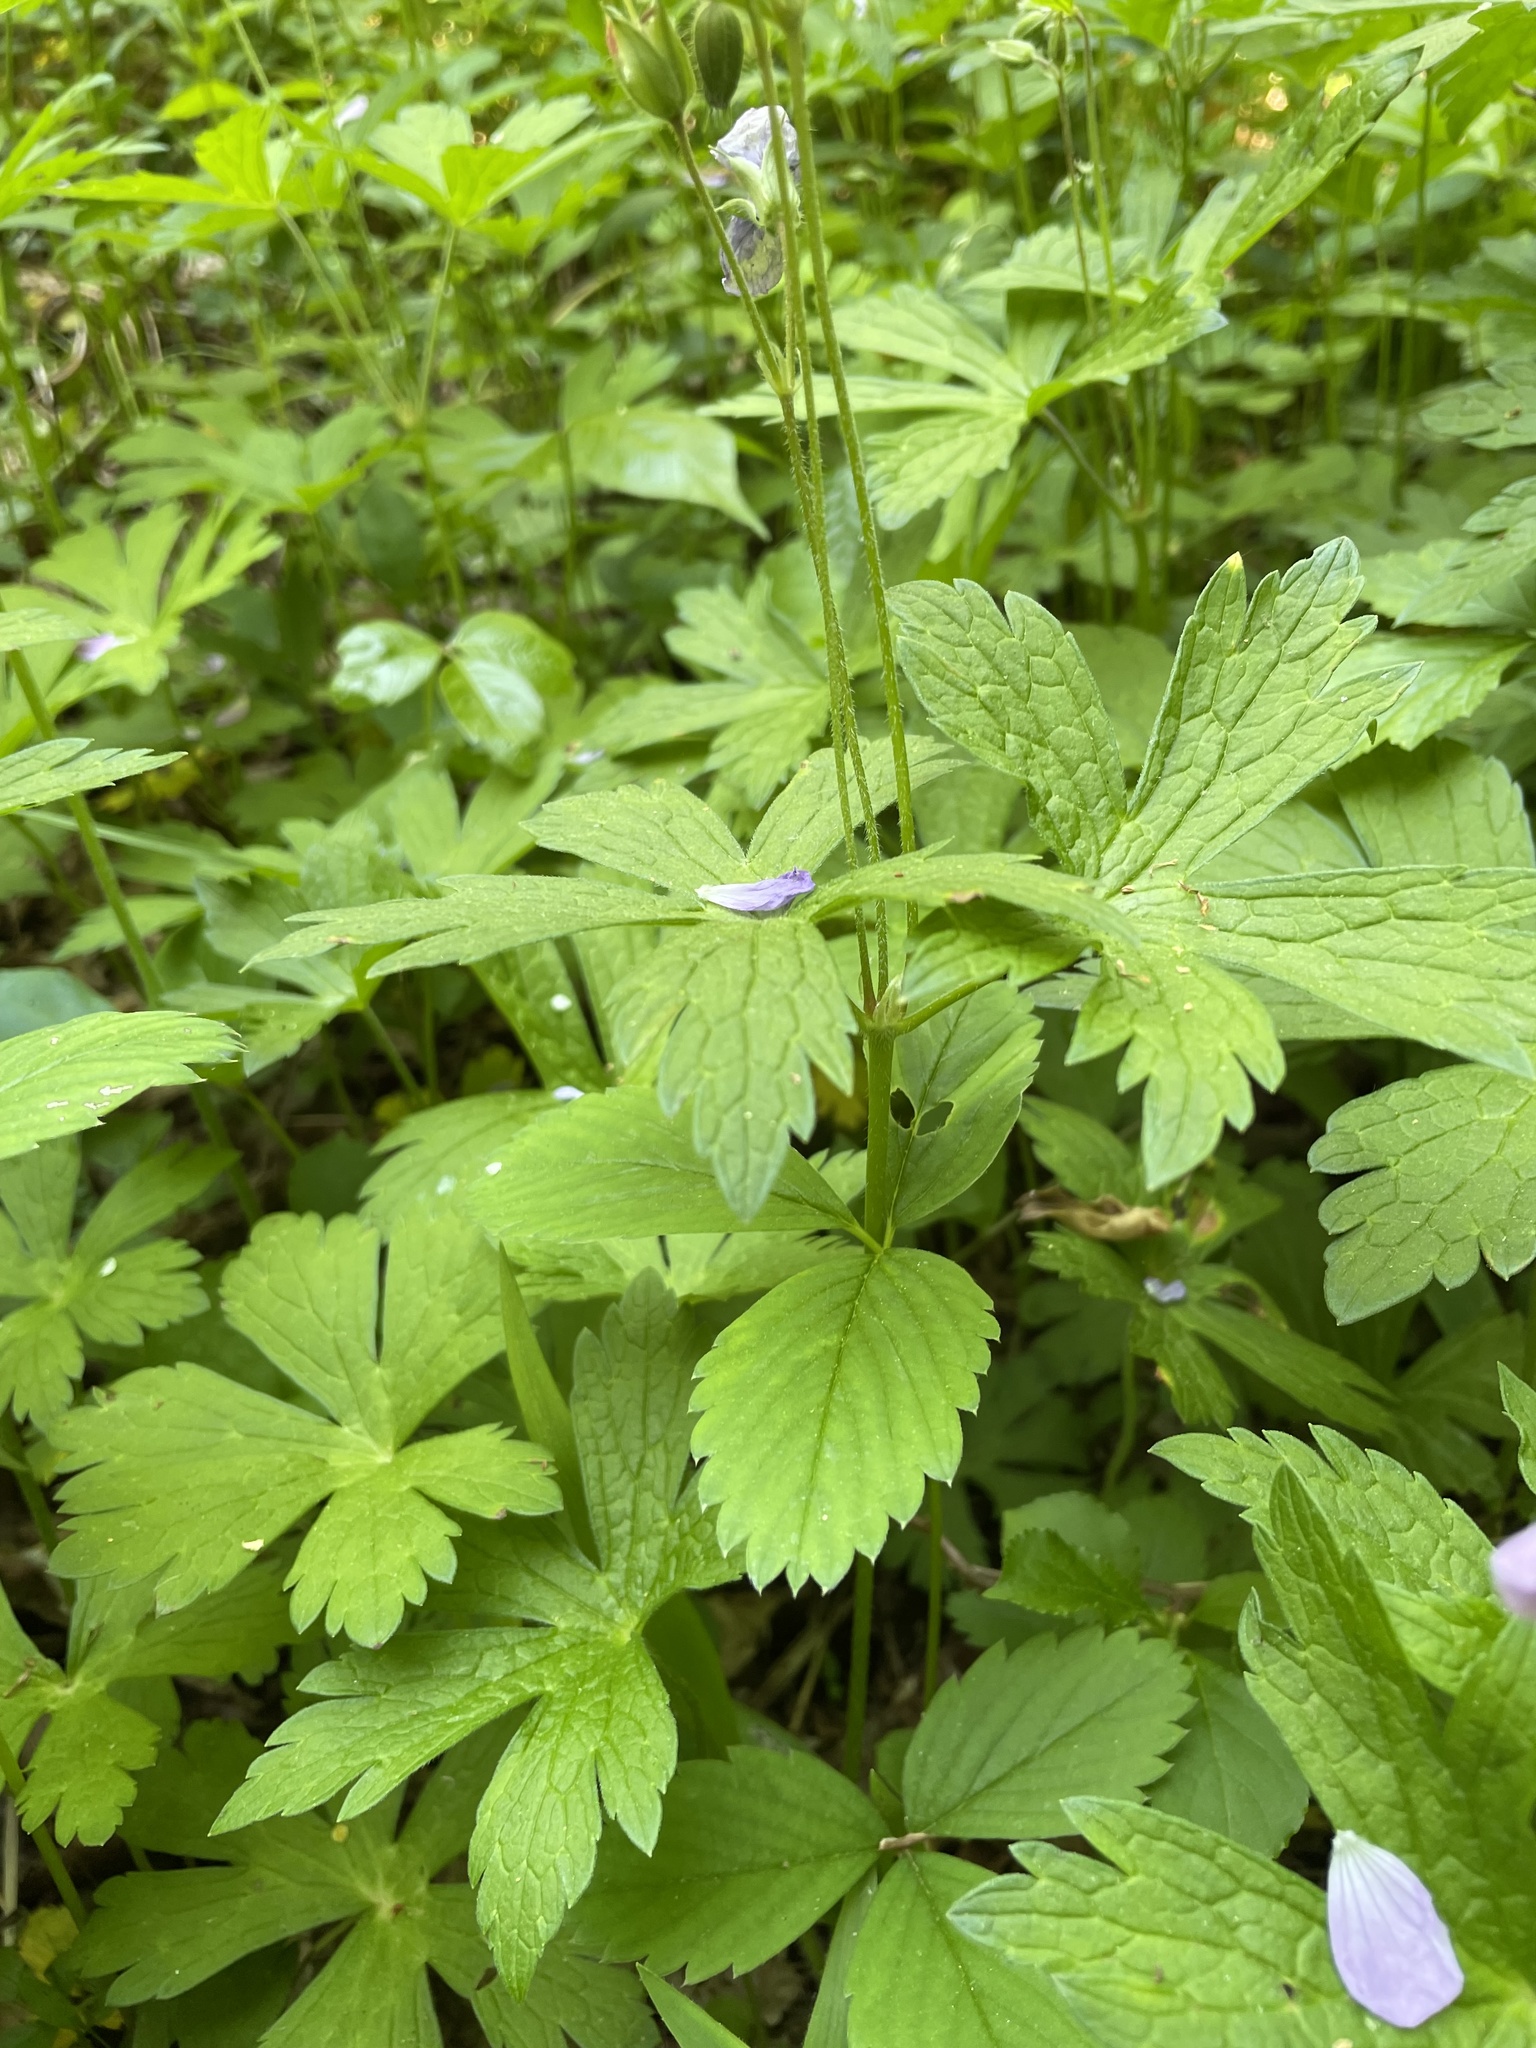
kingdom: Plantae
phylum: Tracheophyta
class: Magnoliopsida
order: Geraniales
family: Geraniaceae
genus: Geranium
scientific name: Geranium maculatum
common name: Spotted geranium
